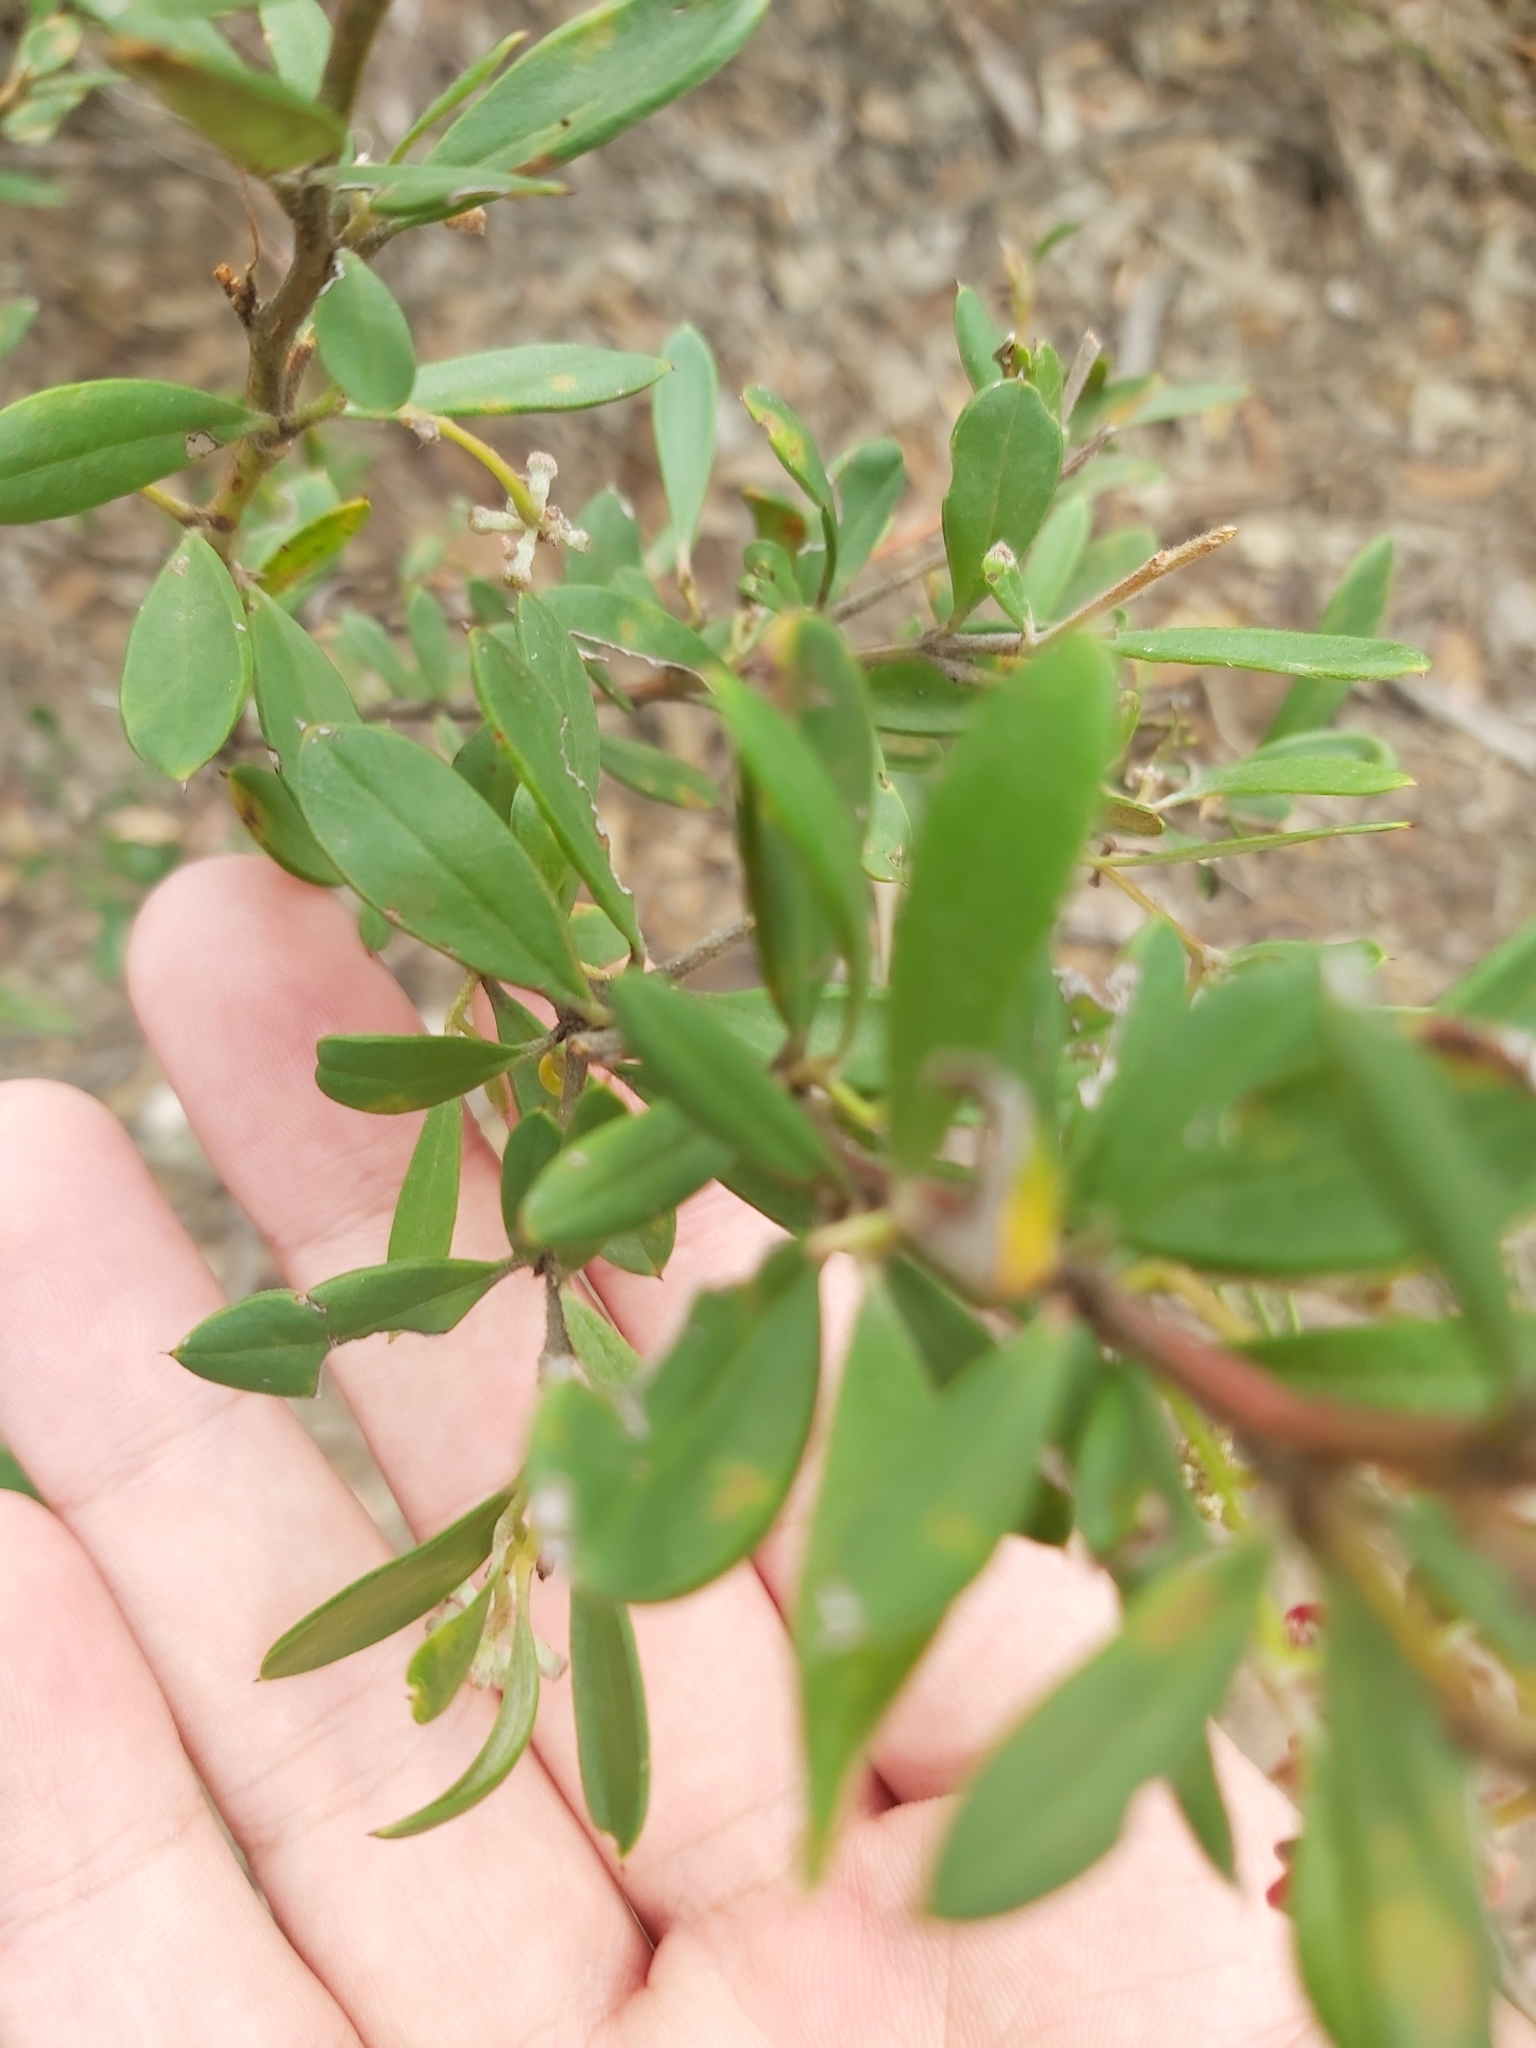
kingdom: Plantae
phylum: Tracheophyta
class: Magnoliopsida
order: Proteales
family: Proteaceae
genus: Grevillea
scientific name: Grevillea speciosa
